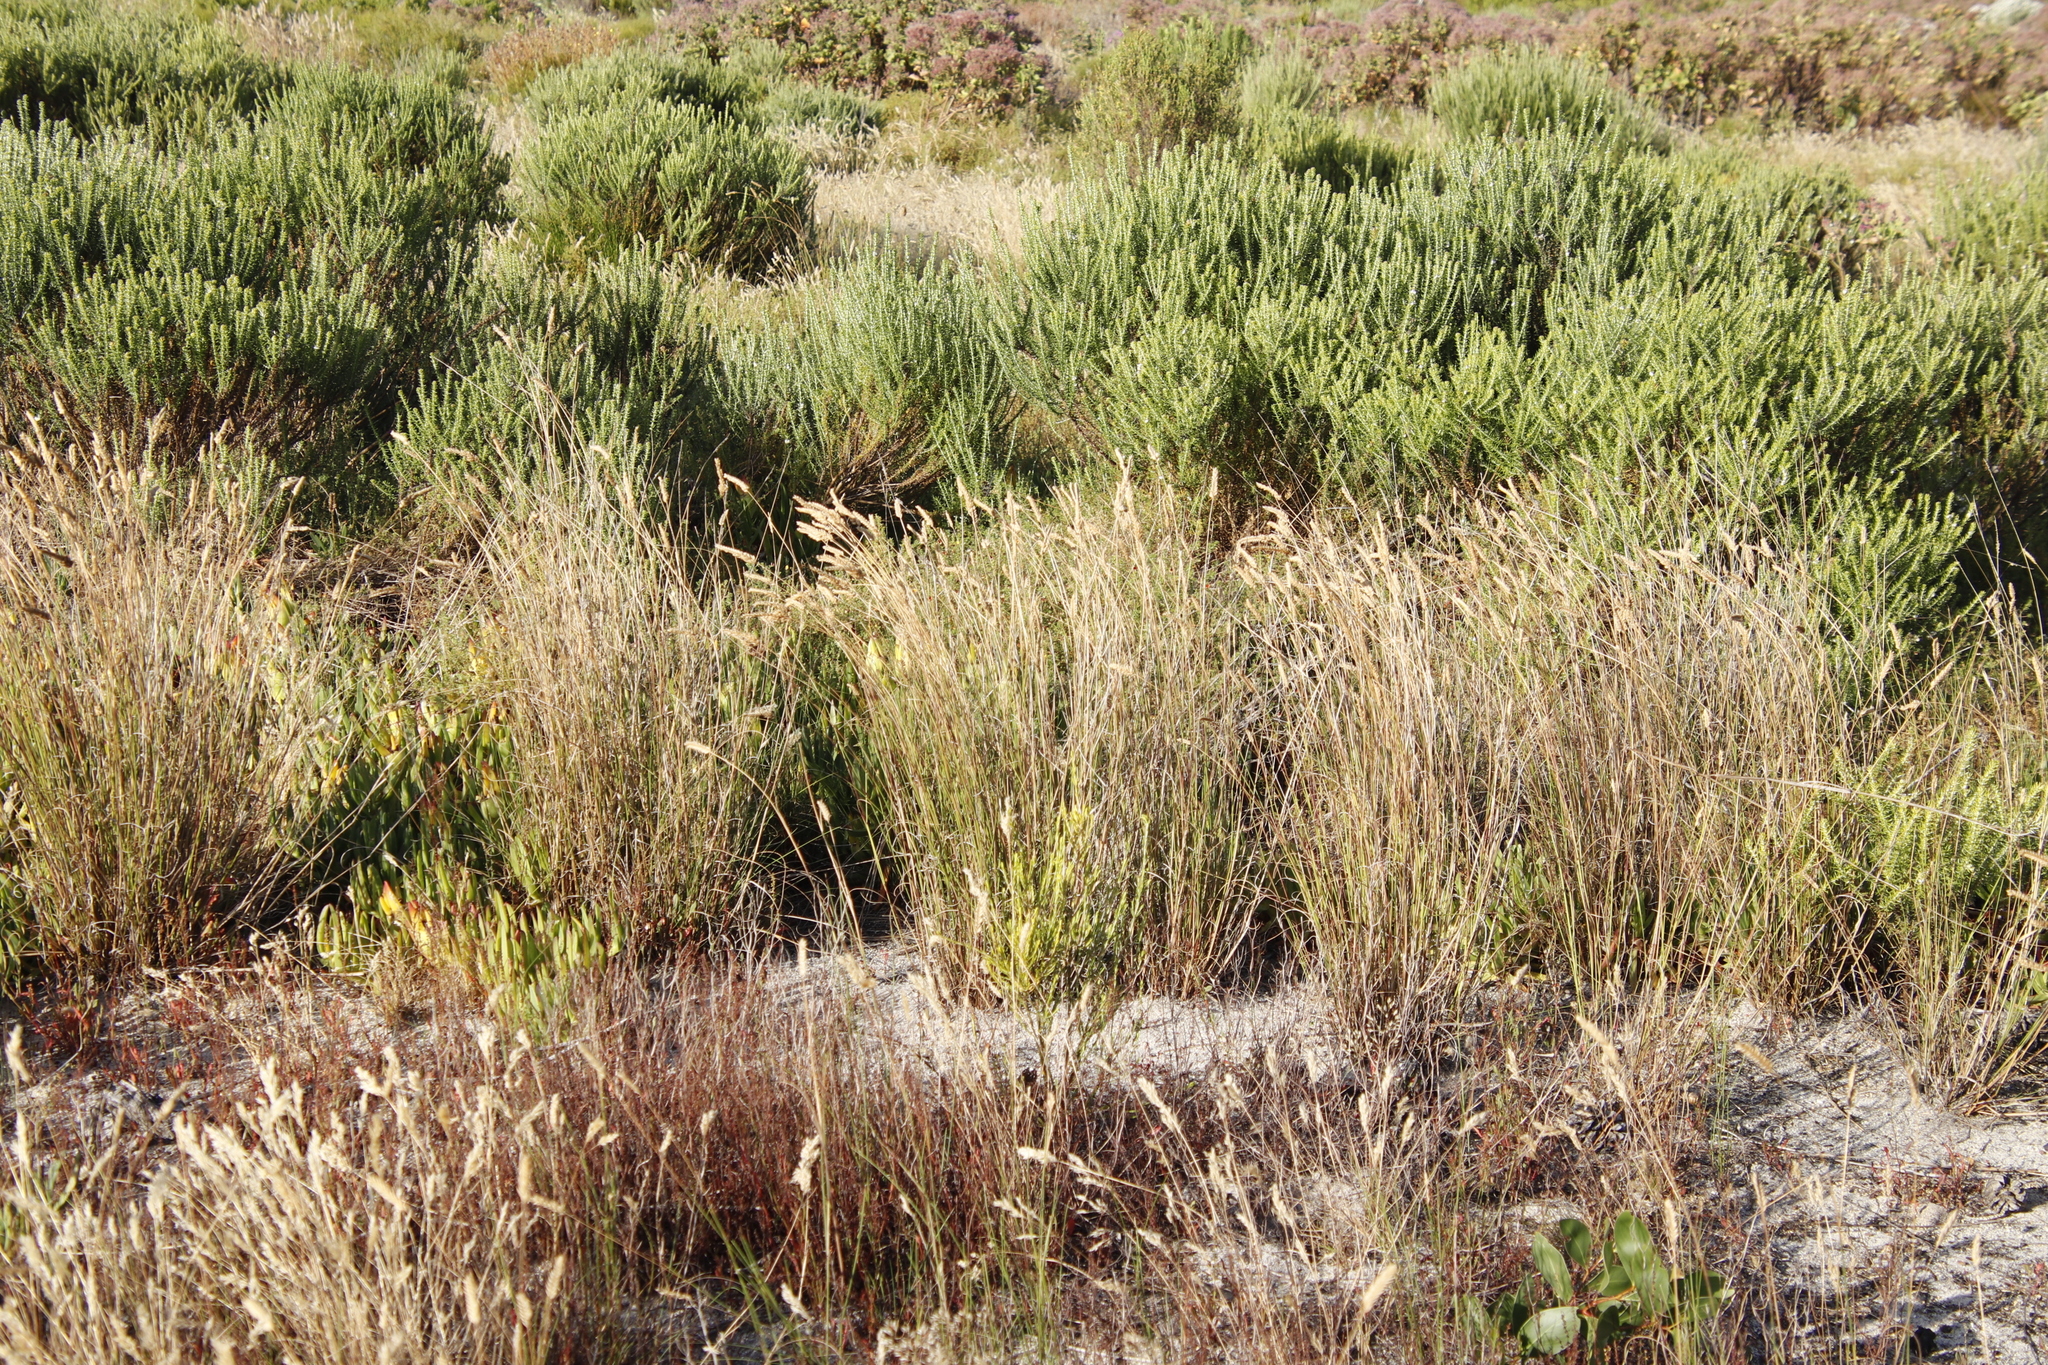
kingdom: Plantae
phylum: Tracheophyta
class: Magnoliopsida
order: Asterales
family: Asteraceae
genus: Metalasia
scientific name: Metalasia densa
